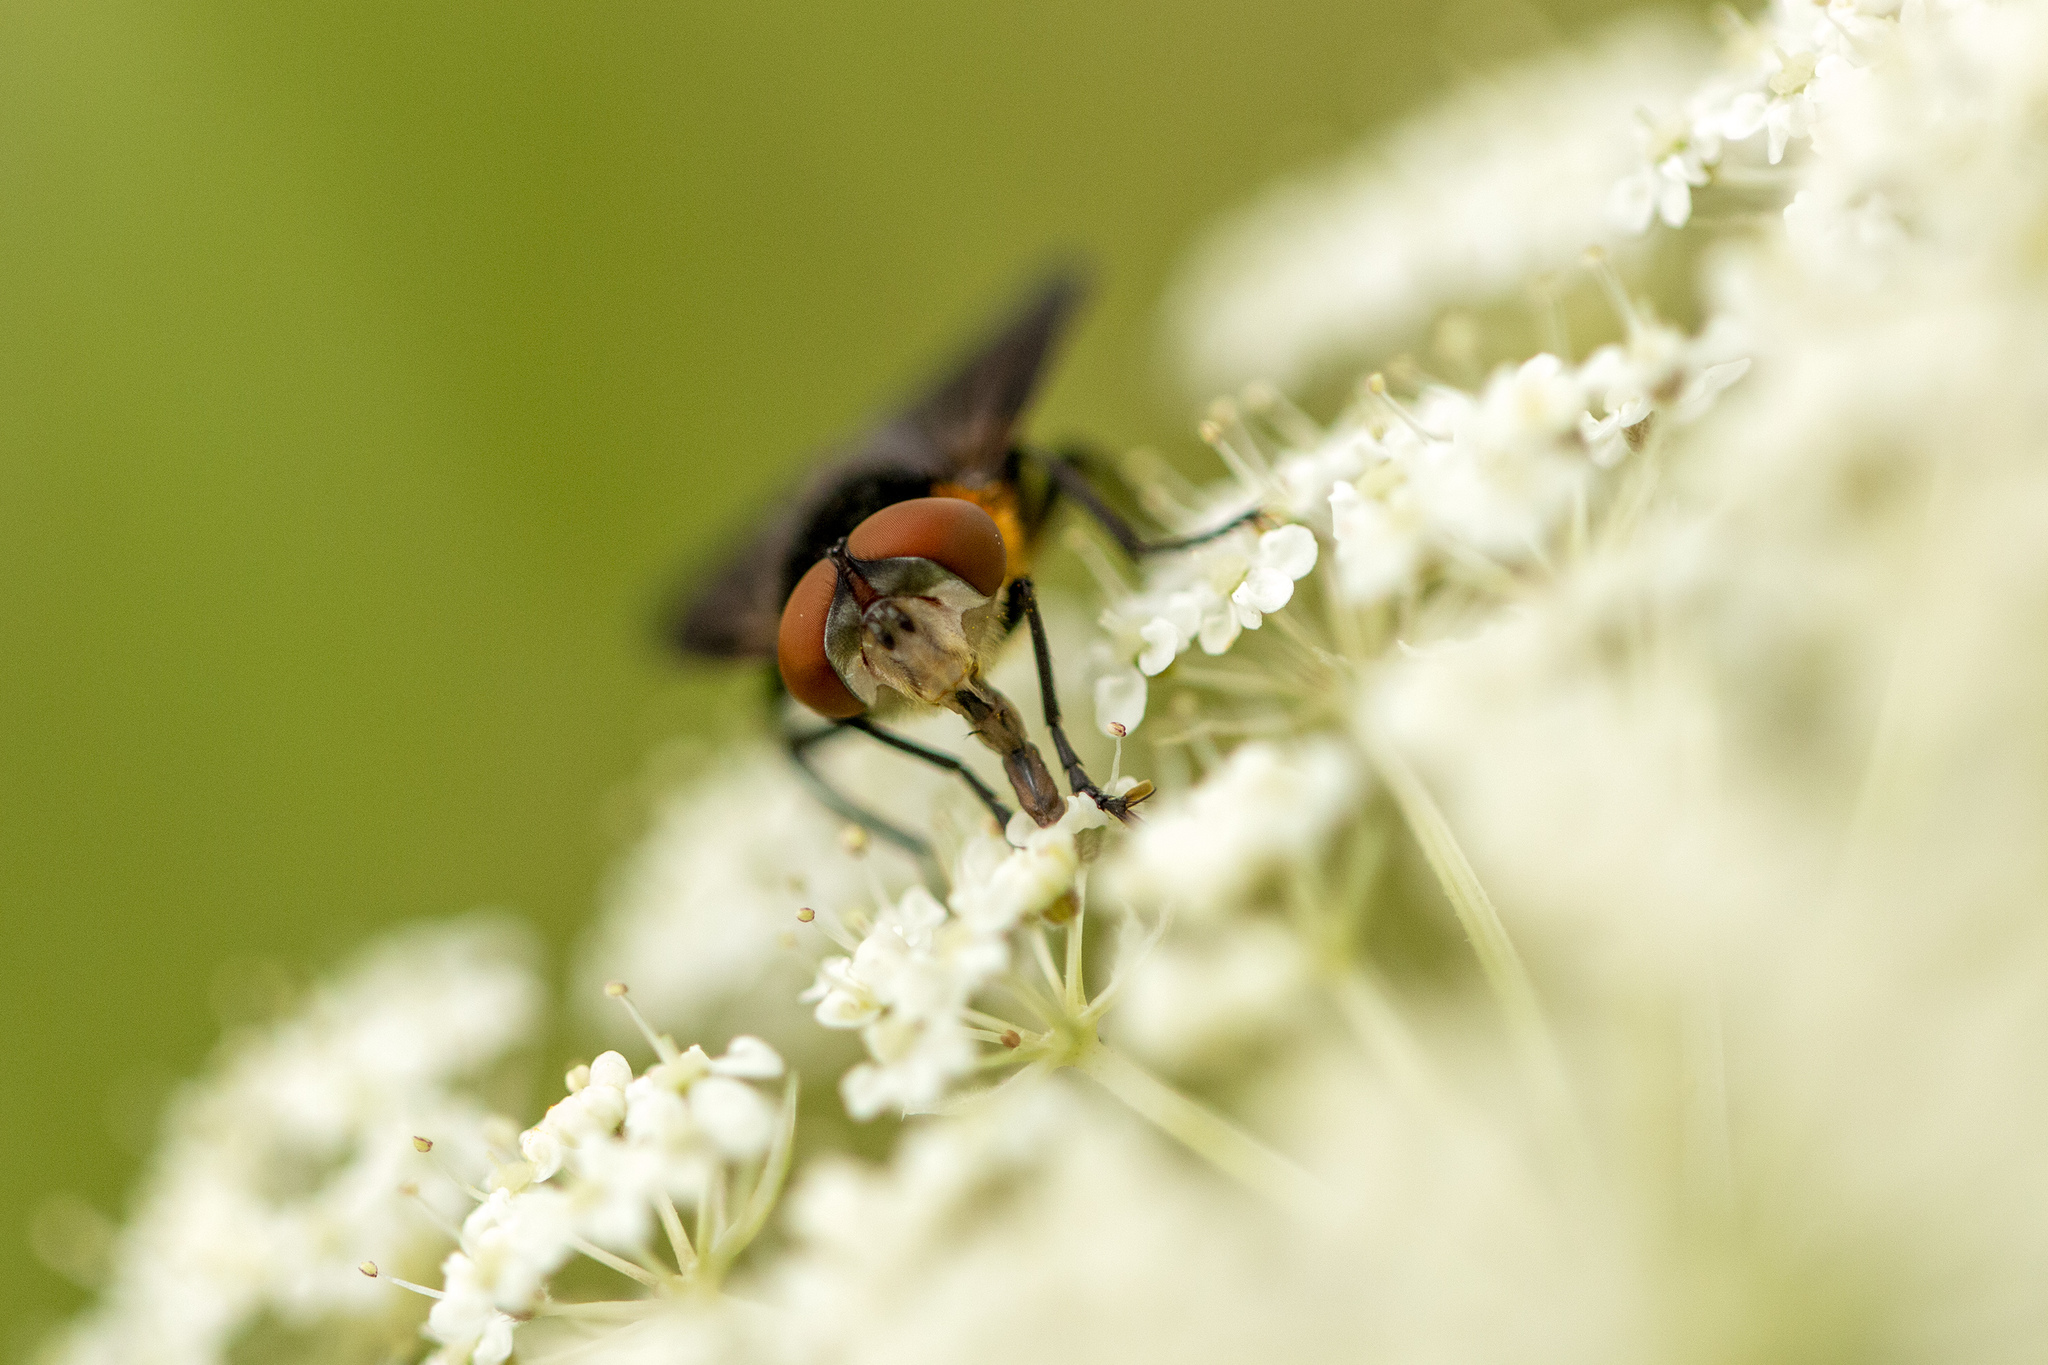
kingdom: Animalia
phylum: Arthropoda
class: Insecta
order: Diptera
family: Tachinidae
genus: Phasia
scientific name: Phasia hemiptera
